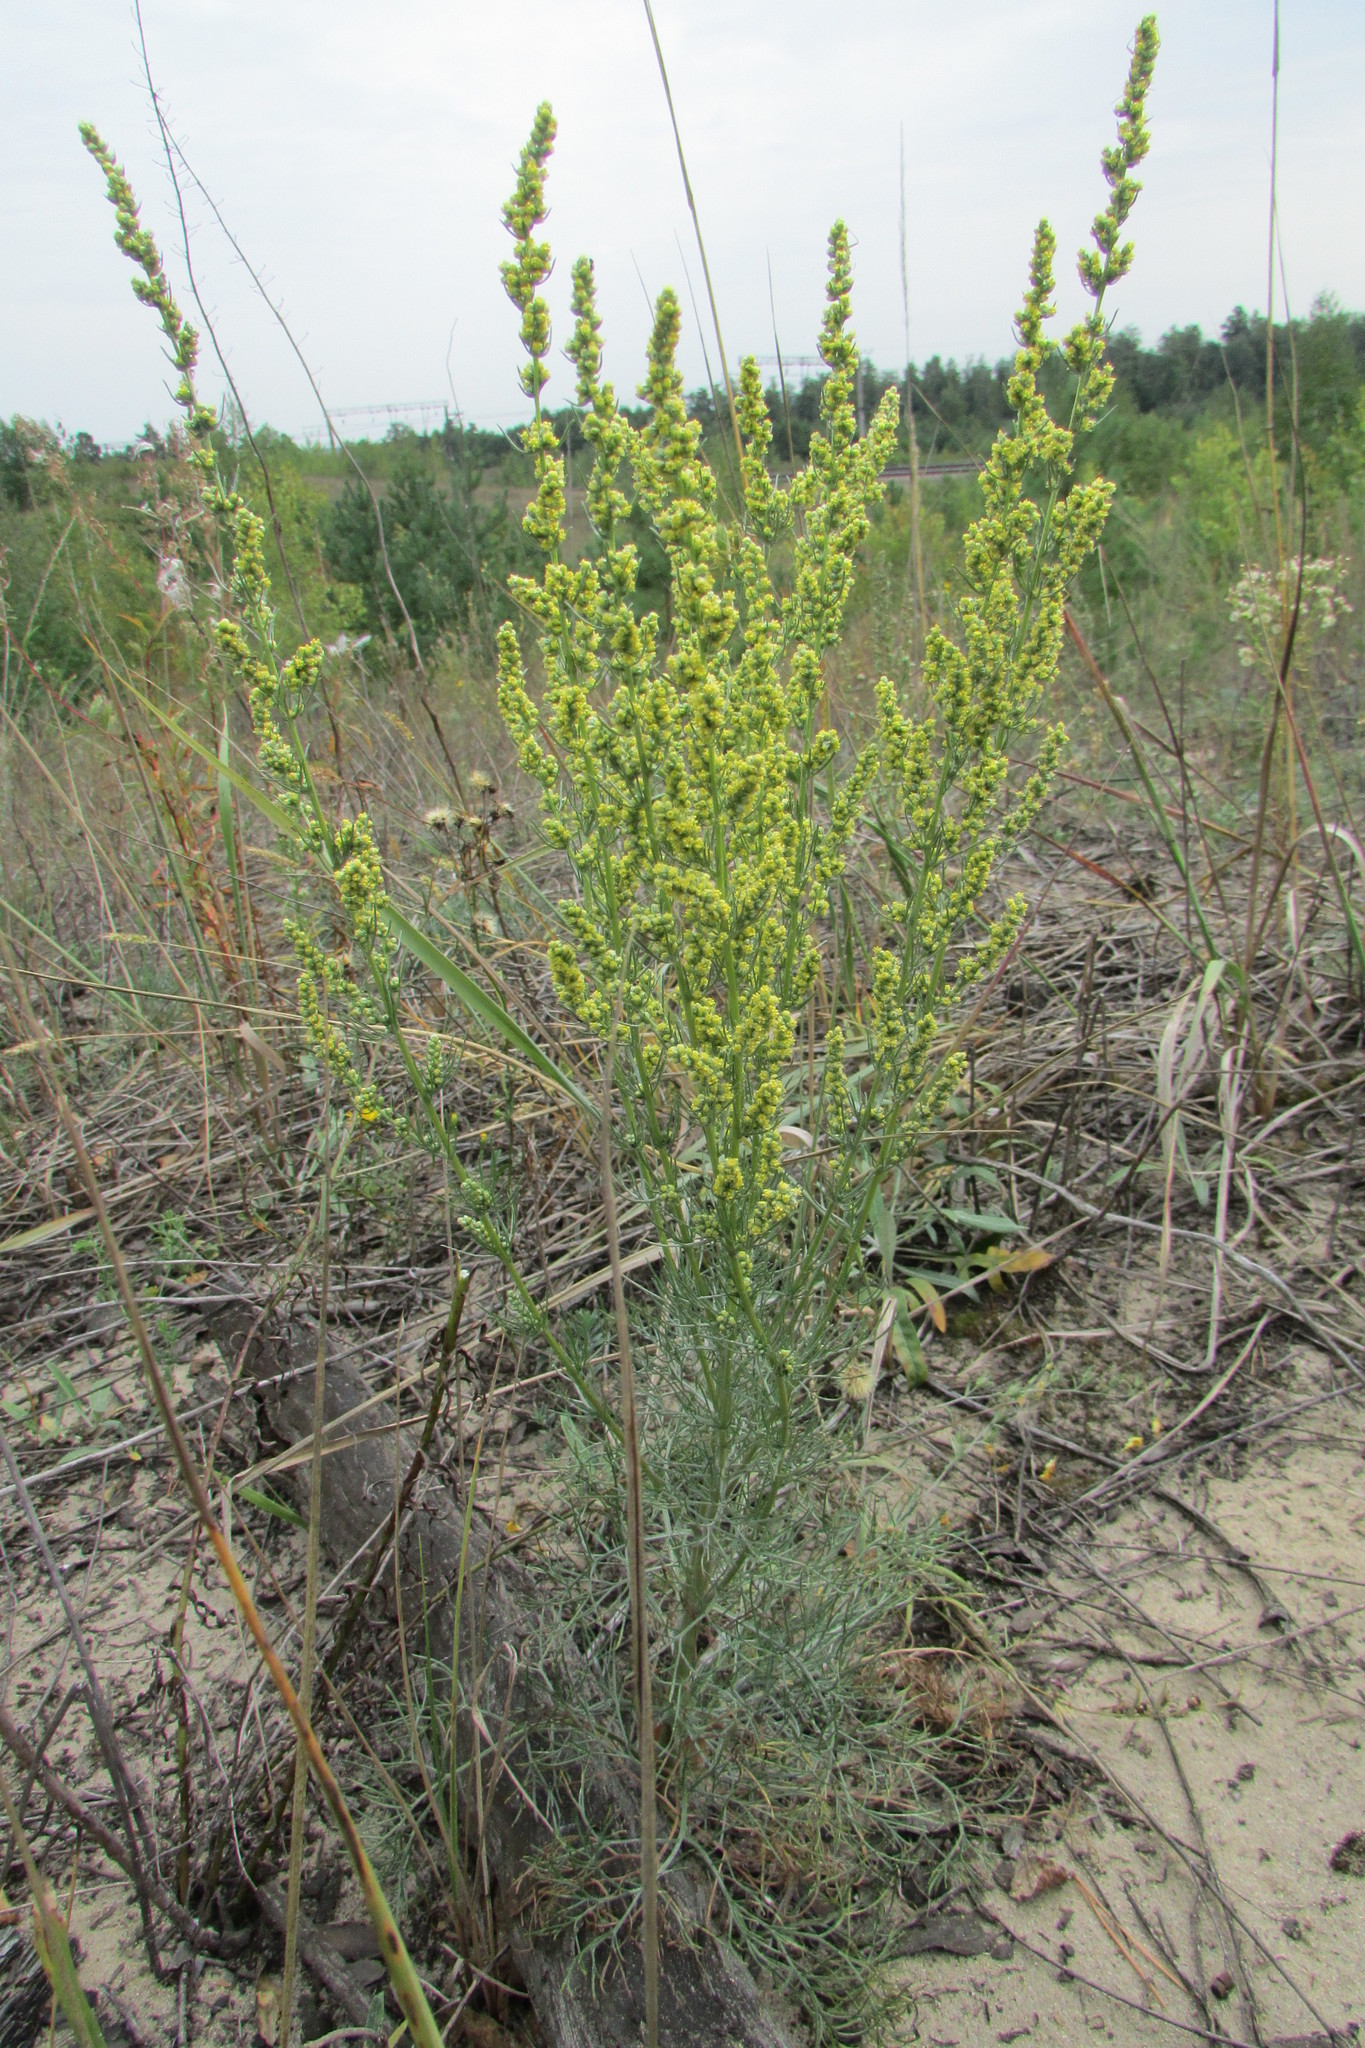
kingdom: Plantae
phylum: Tracheophyta
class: Magnoliopsida
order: Asterales
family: Asteraceae
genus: Artemisia
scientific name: Artemisia campestris
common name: Field wormwood
